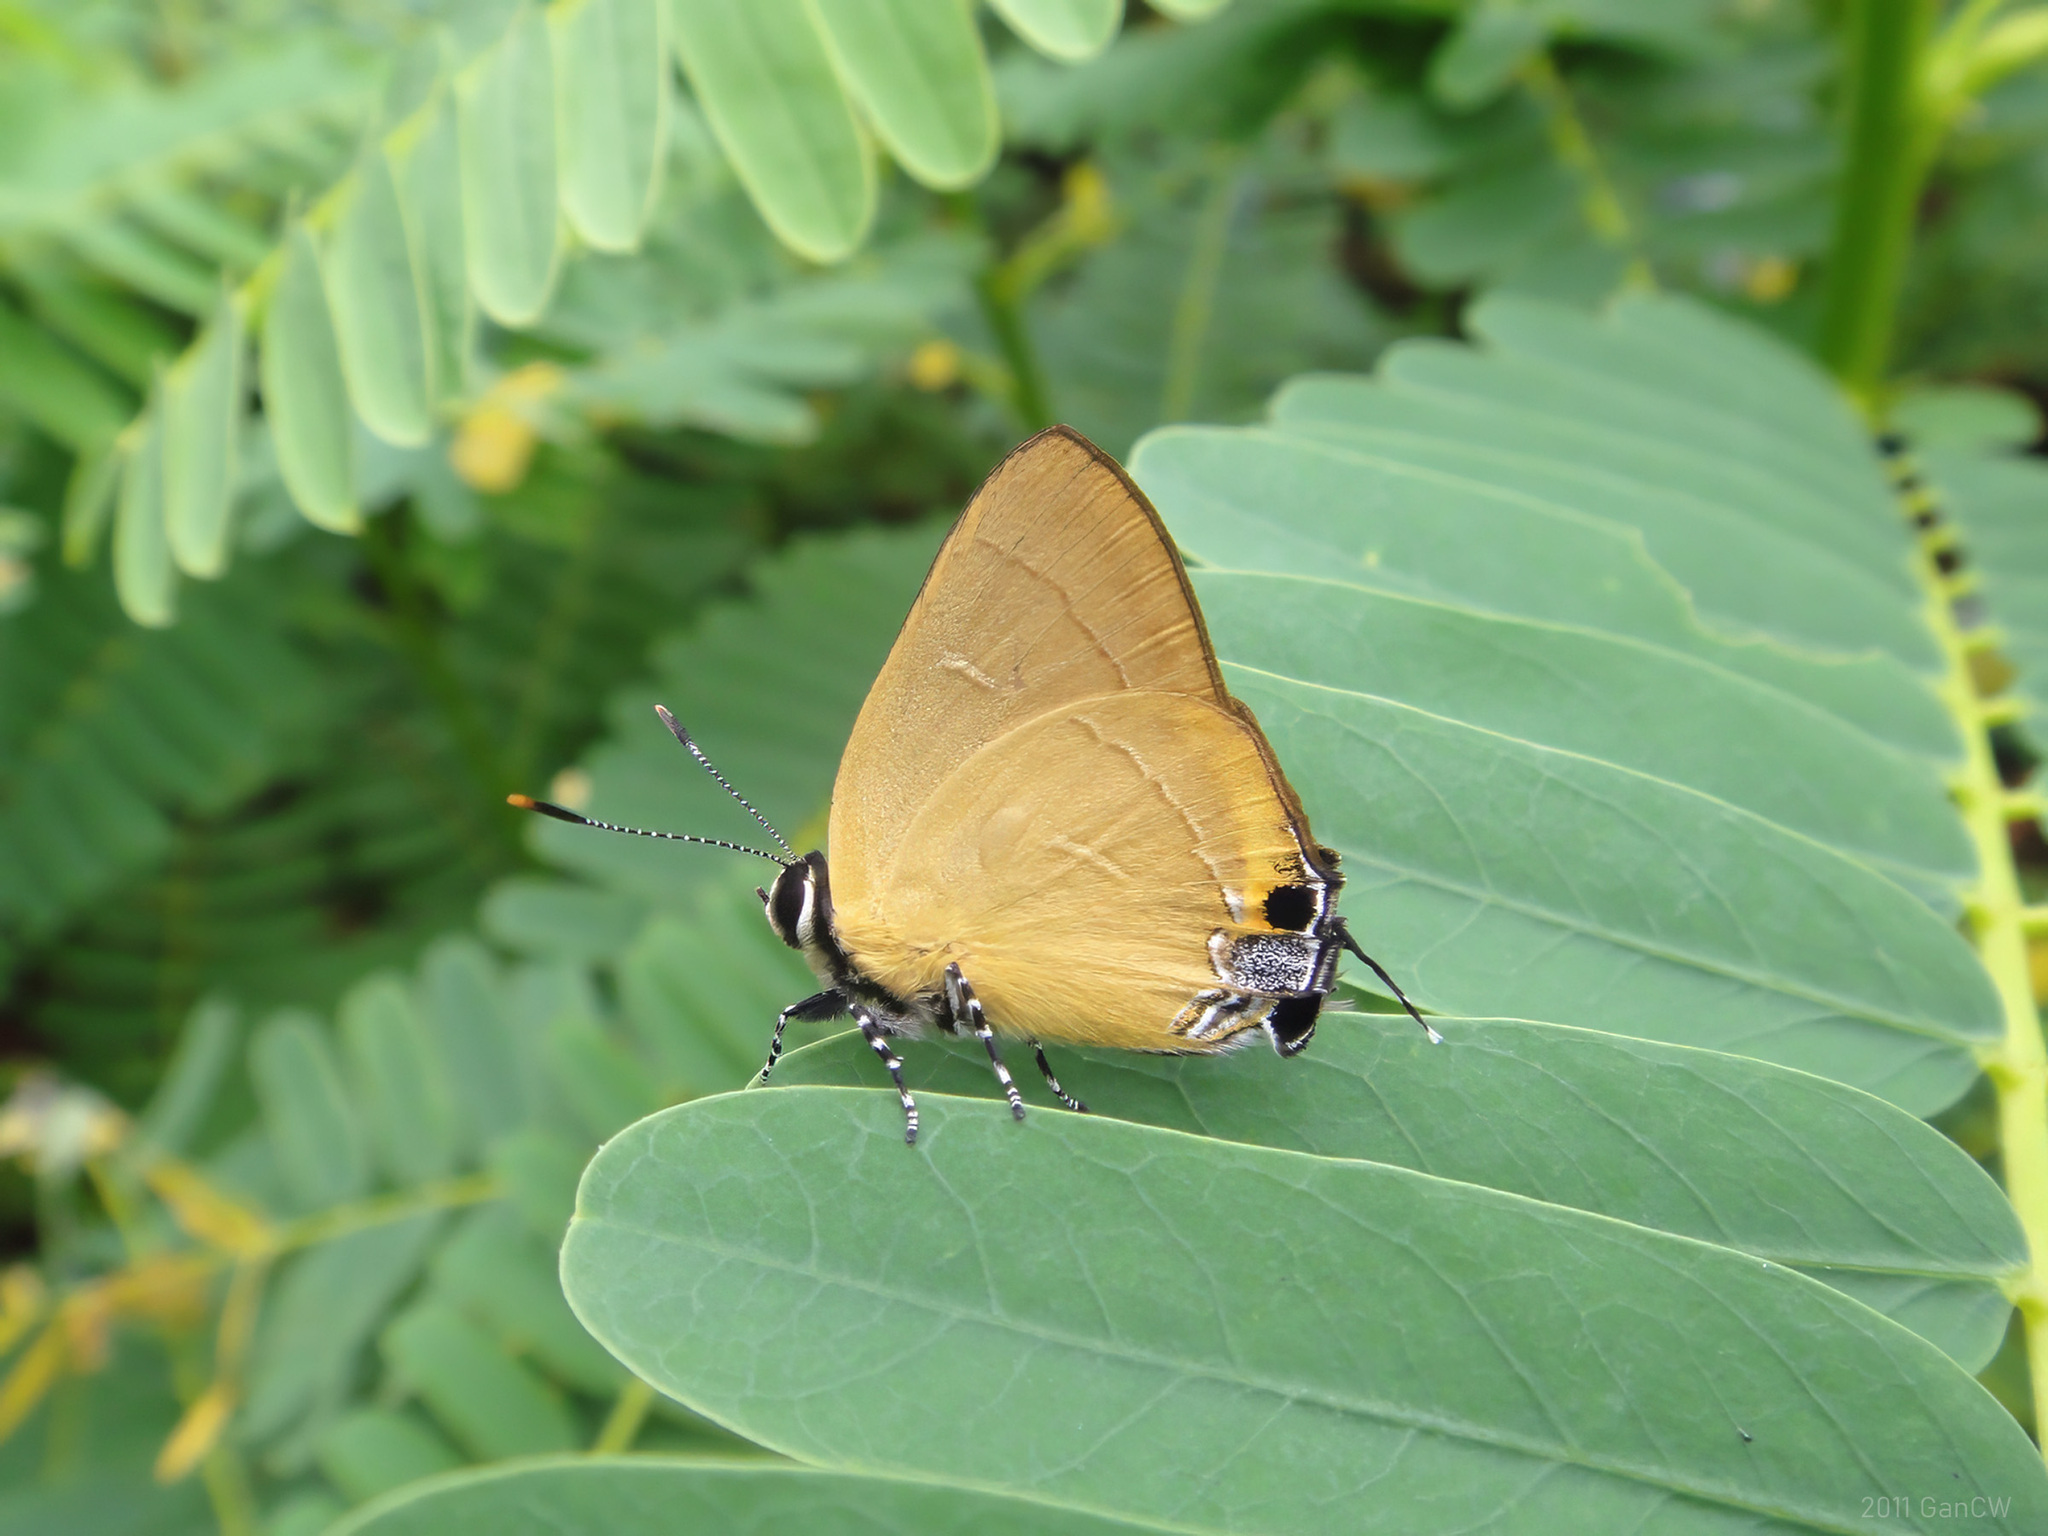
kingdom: Animalia
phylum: Arthropoda
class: Insecta
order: Lepidoptera
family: Lycaenidae
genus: Rapala
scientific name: Rapala damona
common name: Malay red flash
